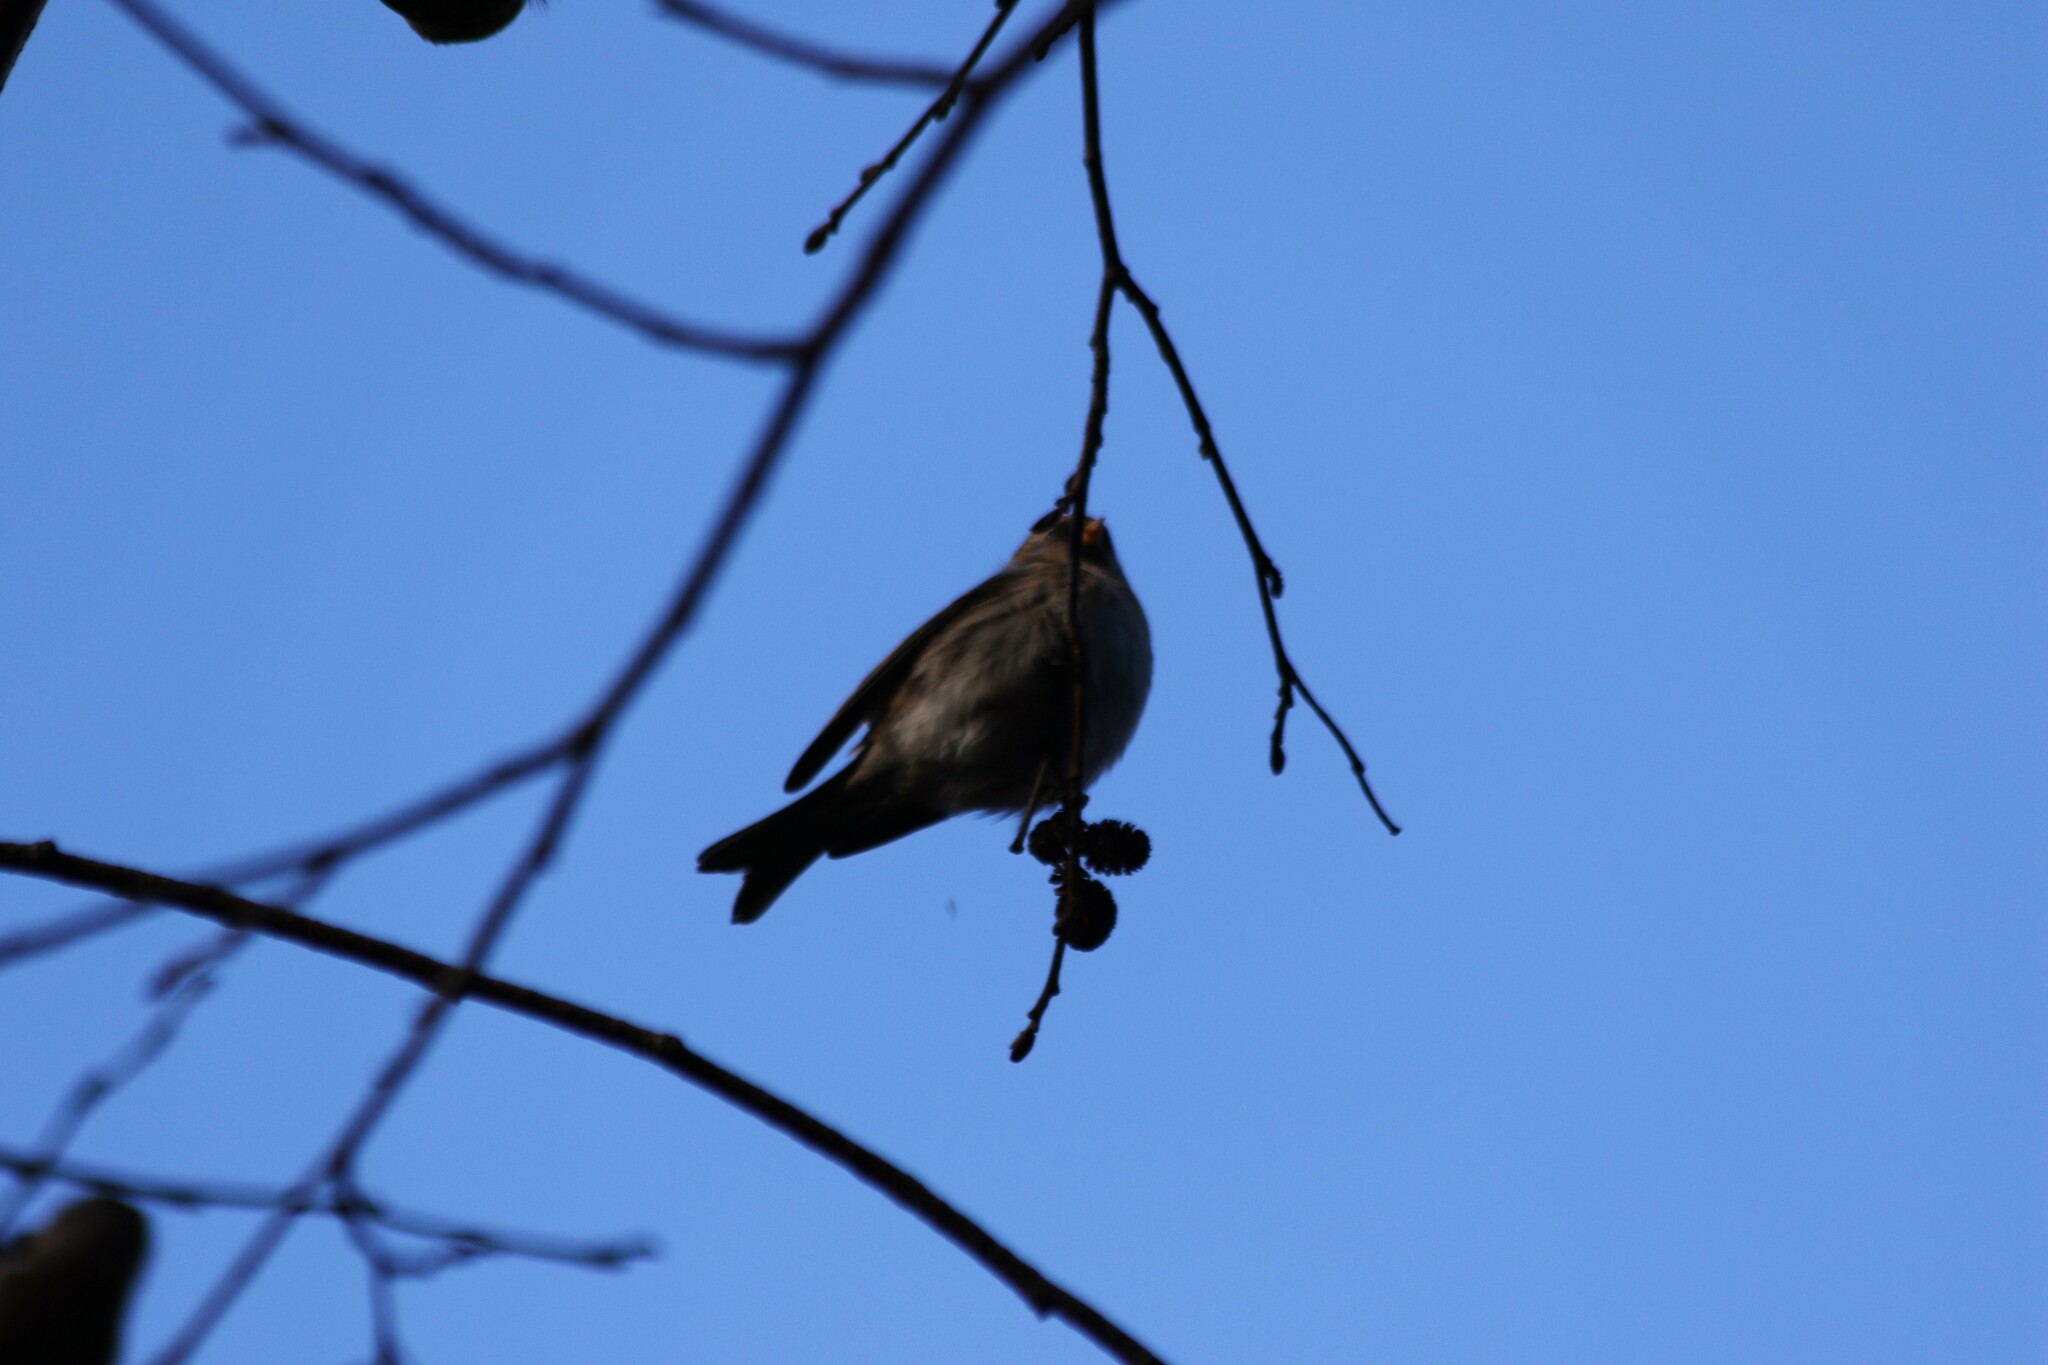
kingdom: Animalia
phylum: Chordata
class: Aves
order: Passeriformes
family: Fringillidae
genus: Acanthis
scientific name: Acanthis flammea
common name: Common redpoll
